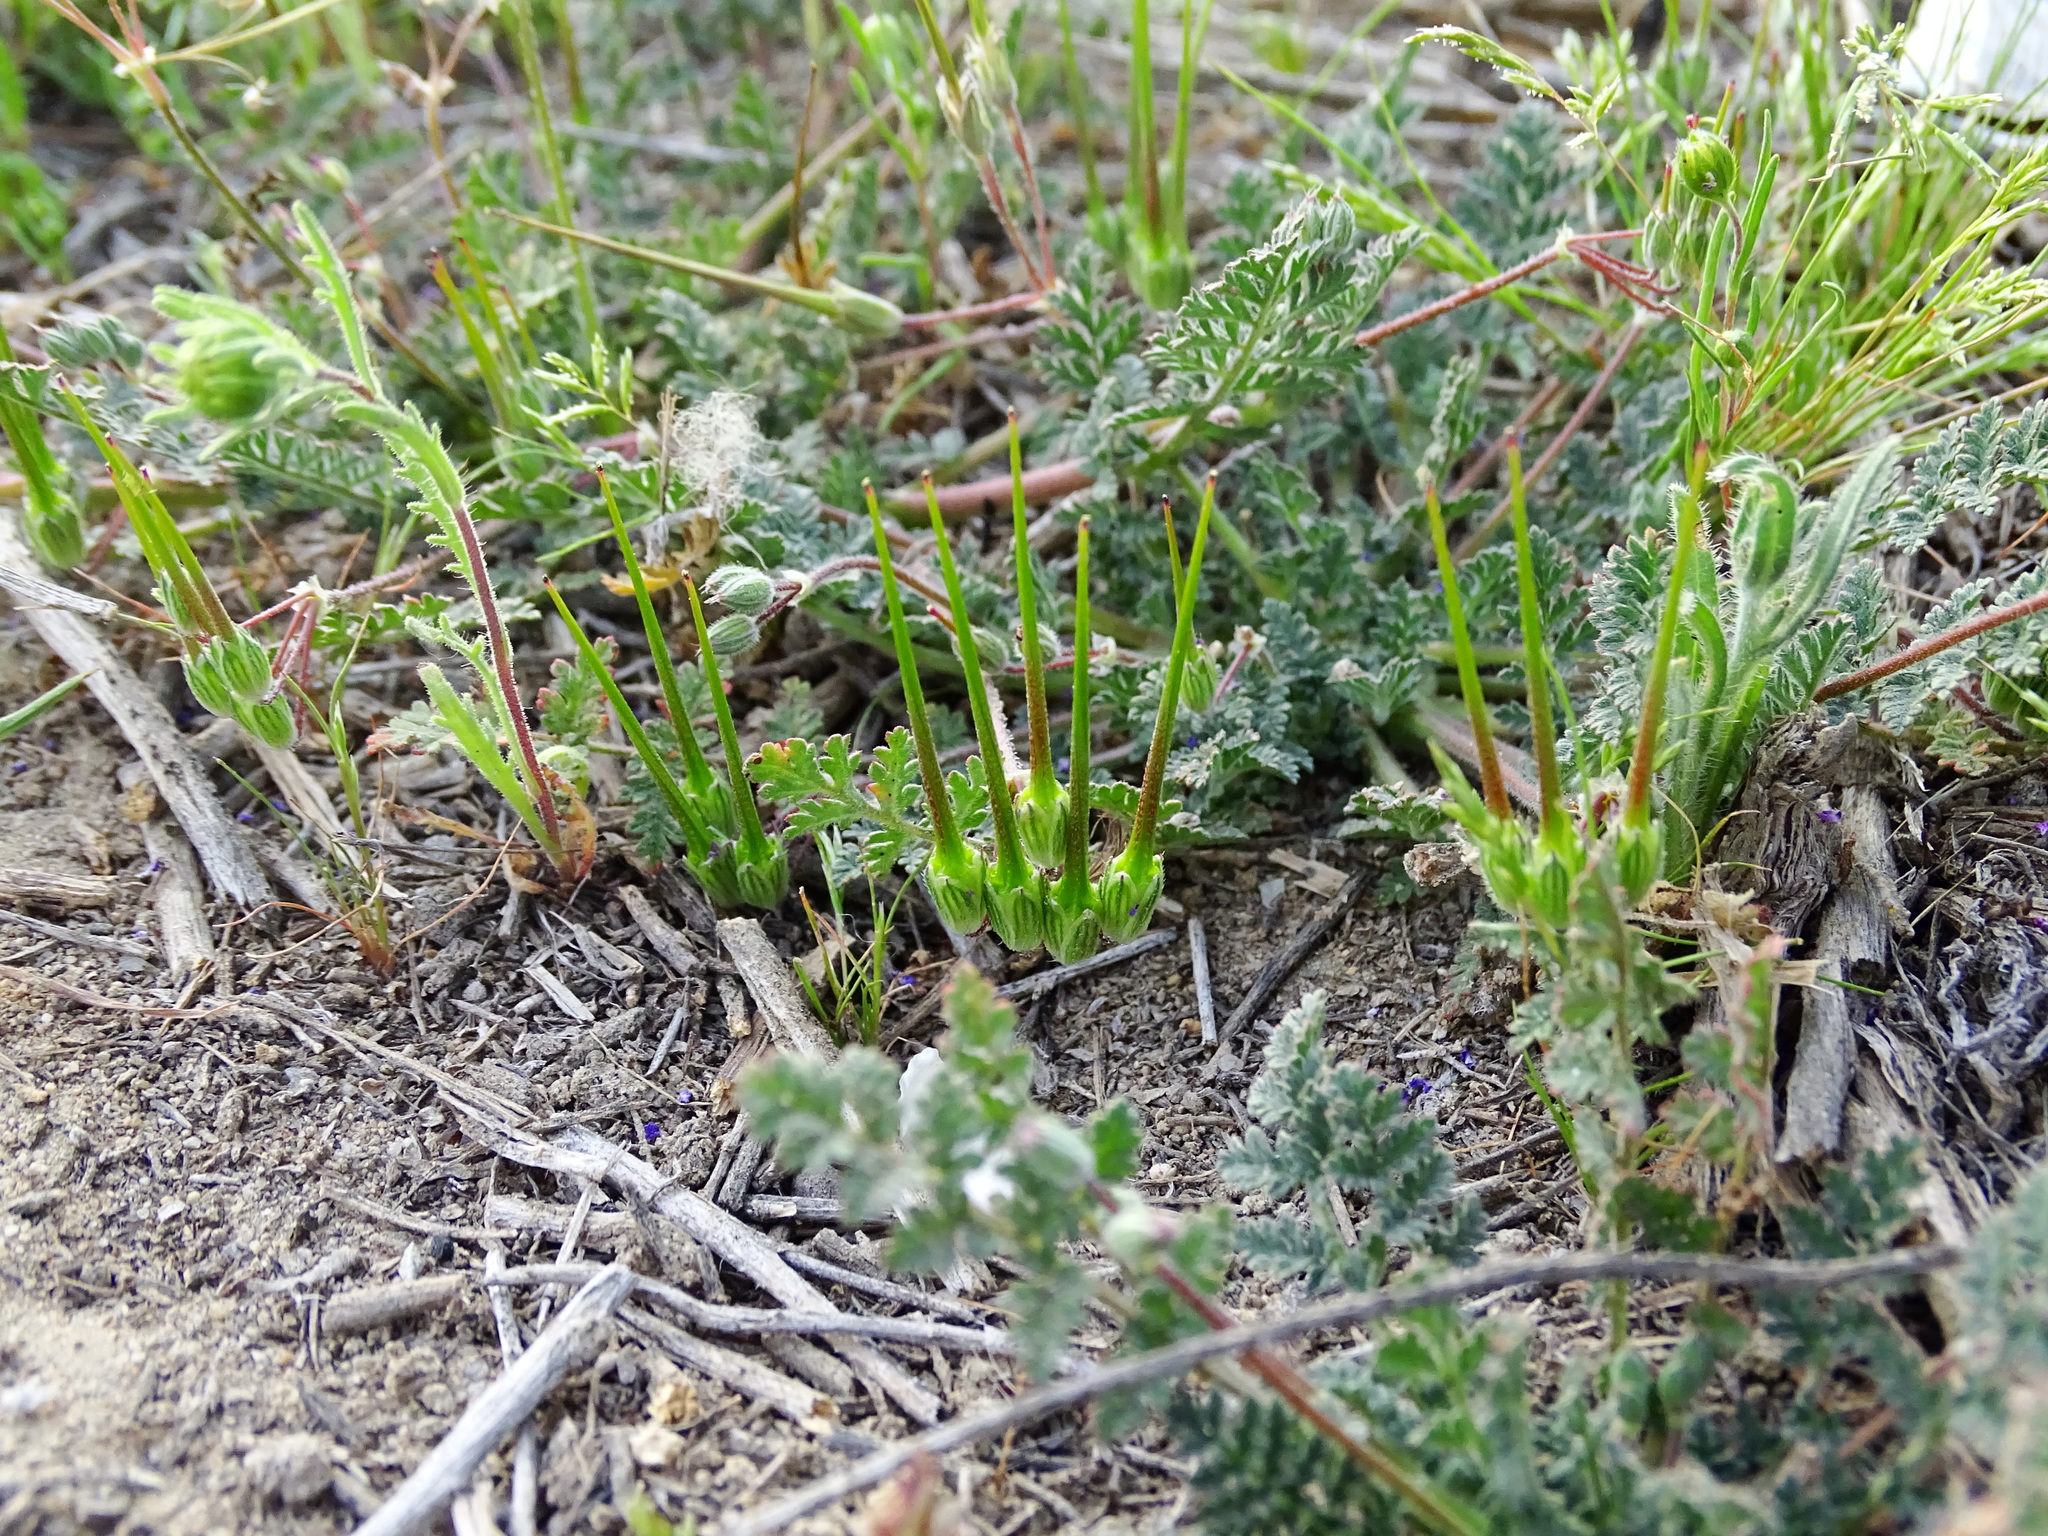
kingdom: Plantae
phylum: Tracheophyta
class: Magnoliopsida
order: Geraniales
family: Geraniaceae
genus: Erodium
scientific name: Erodium cicutarium
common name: Common stork's-bill
